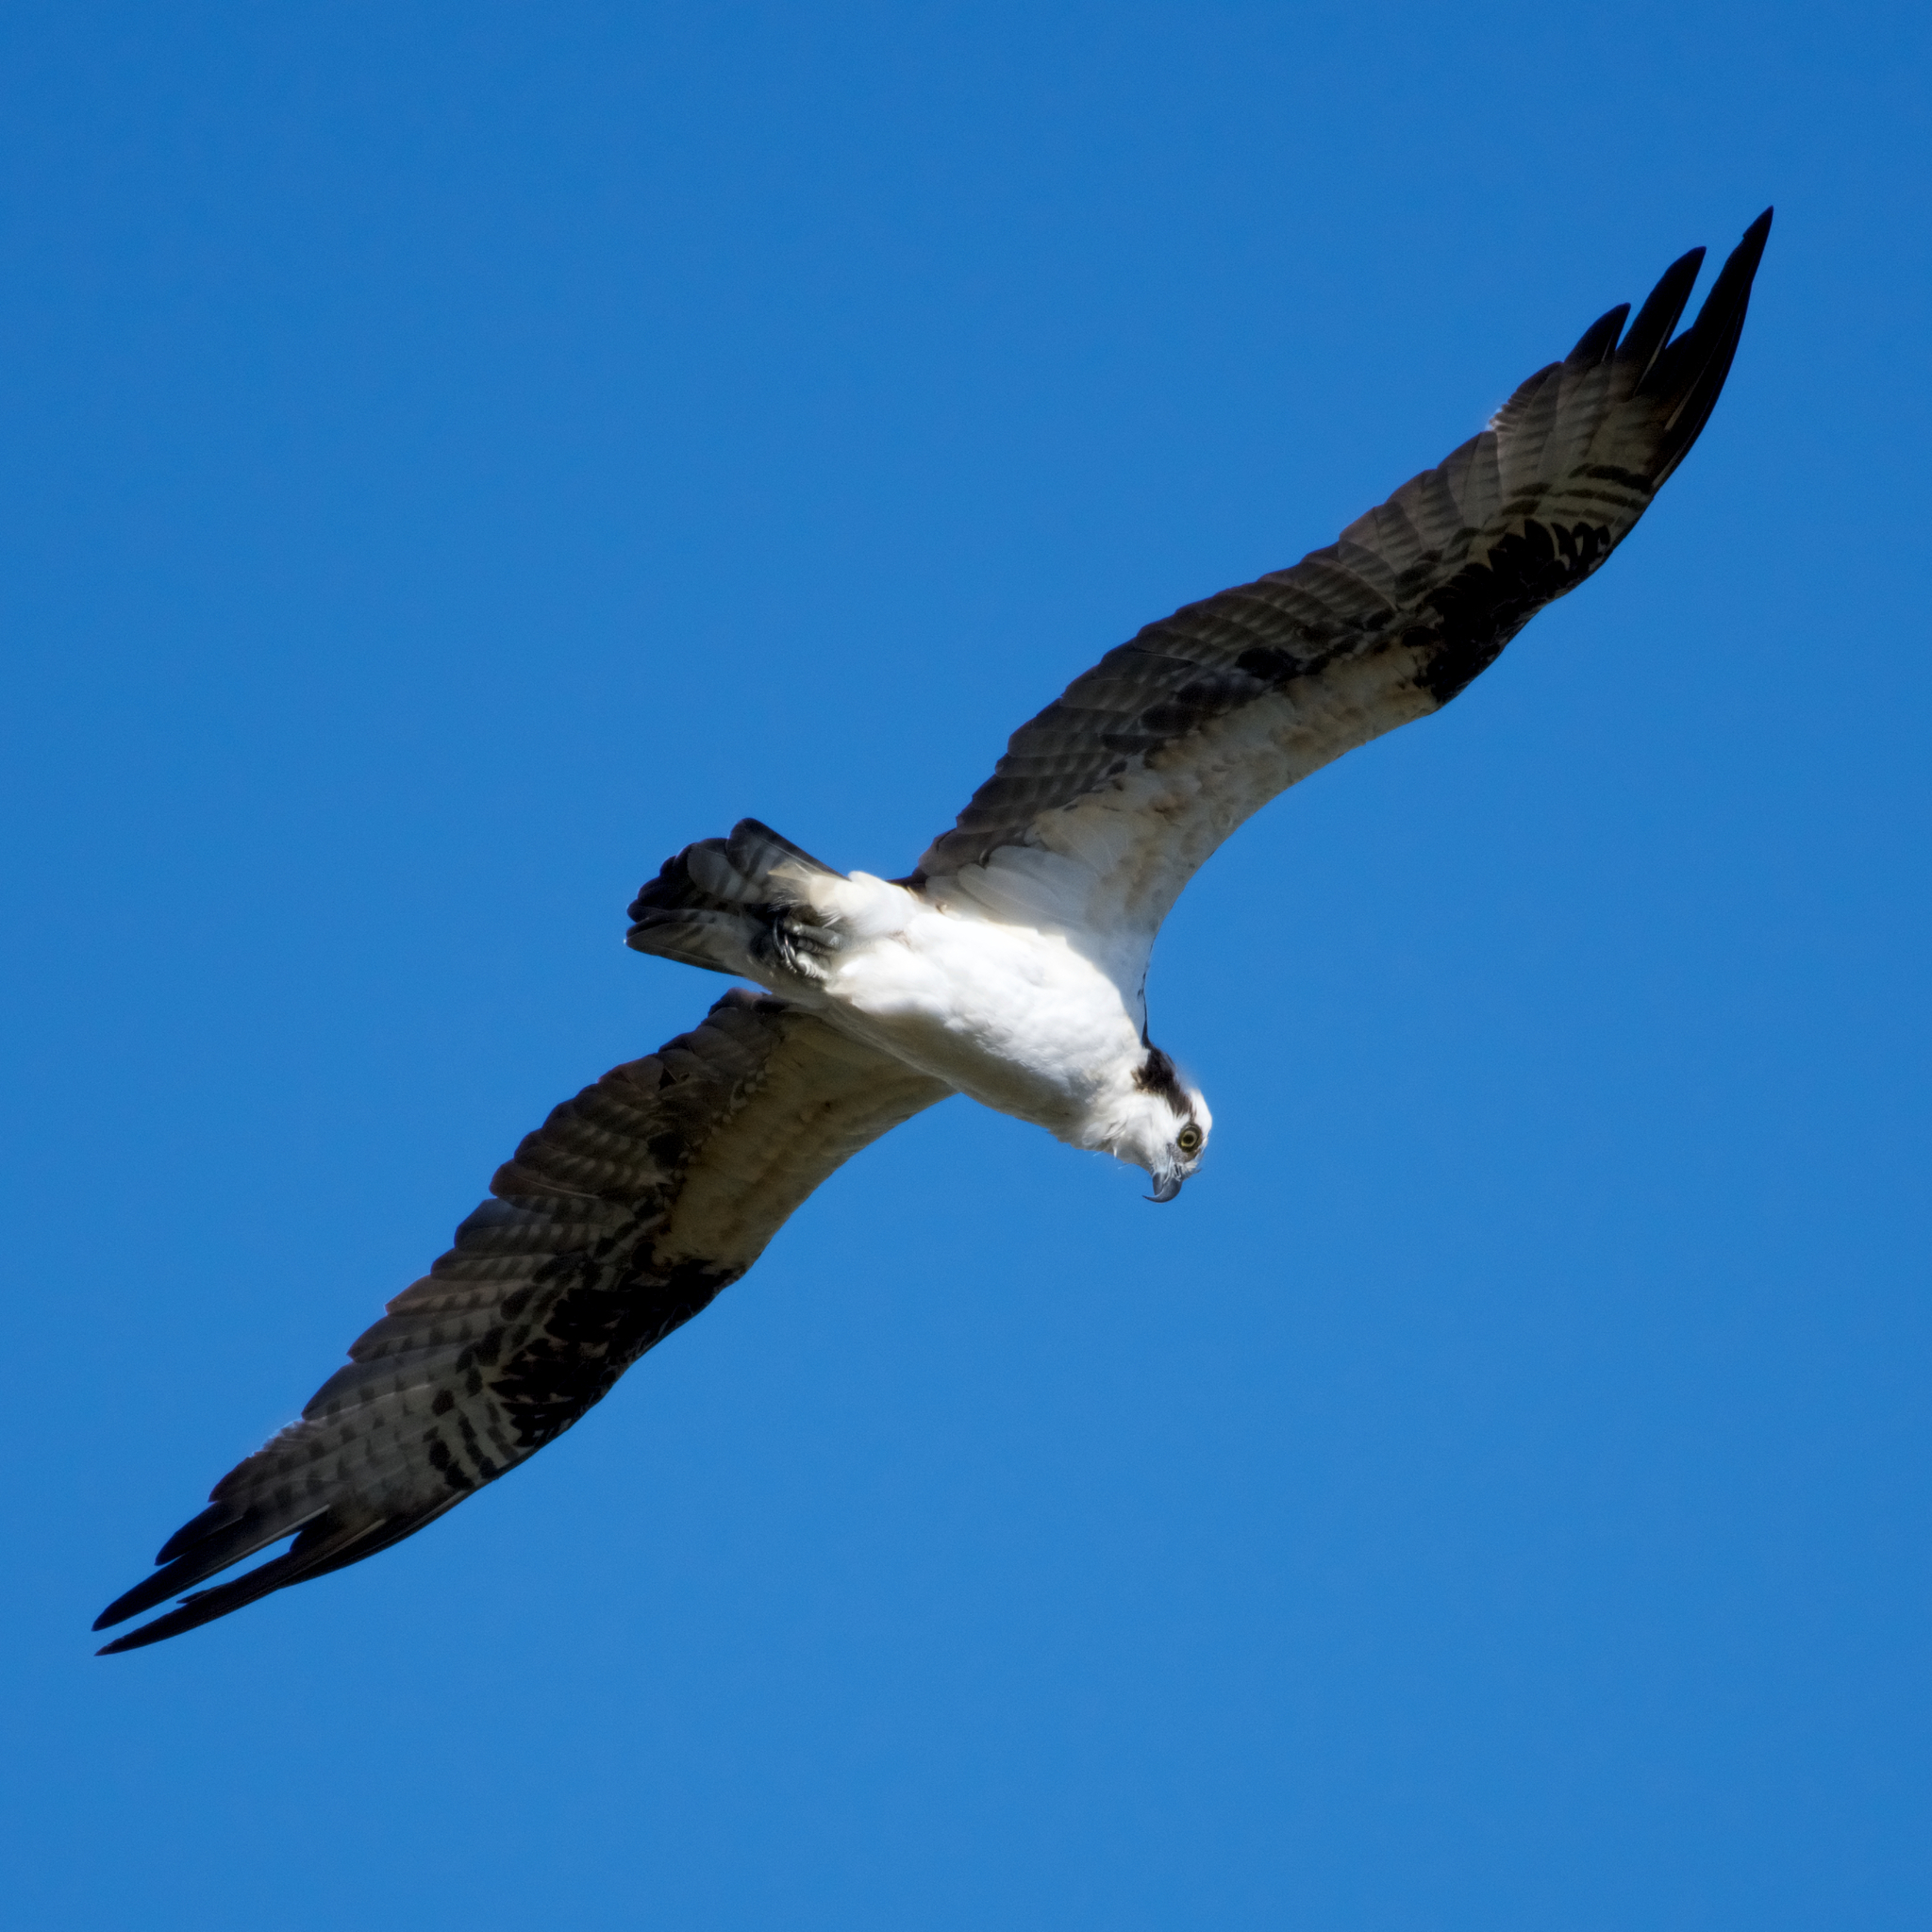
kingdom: Animalia
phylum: Chordata
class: Aves
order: Accipitriformes
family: Pandionidae
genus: Pandion
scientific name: Pandion haliaetus
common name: Osprey
